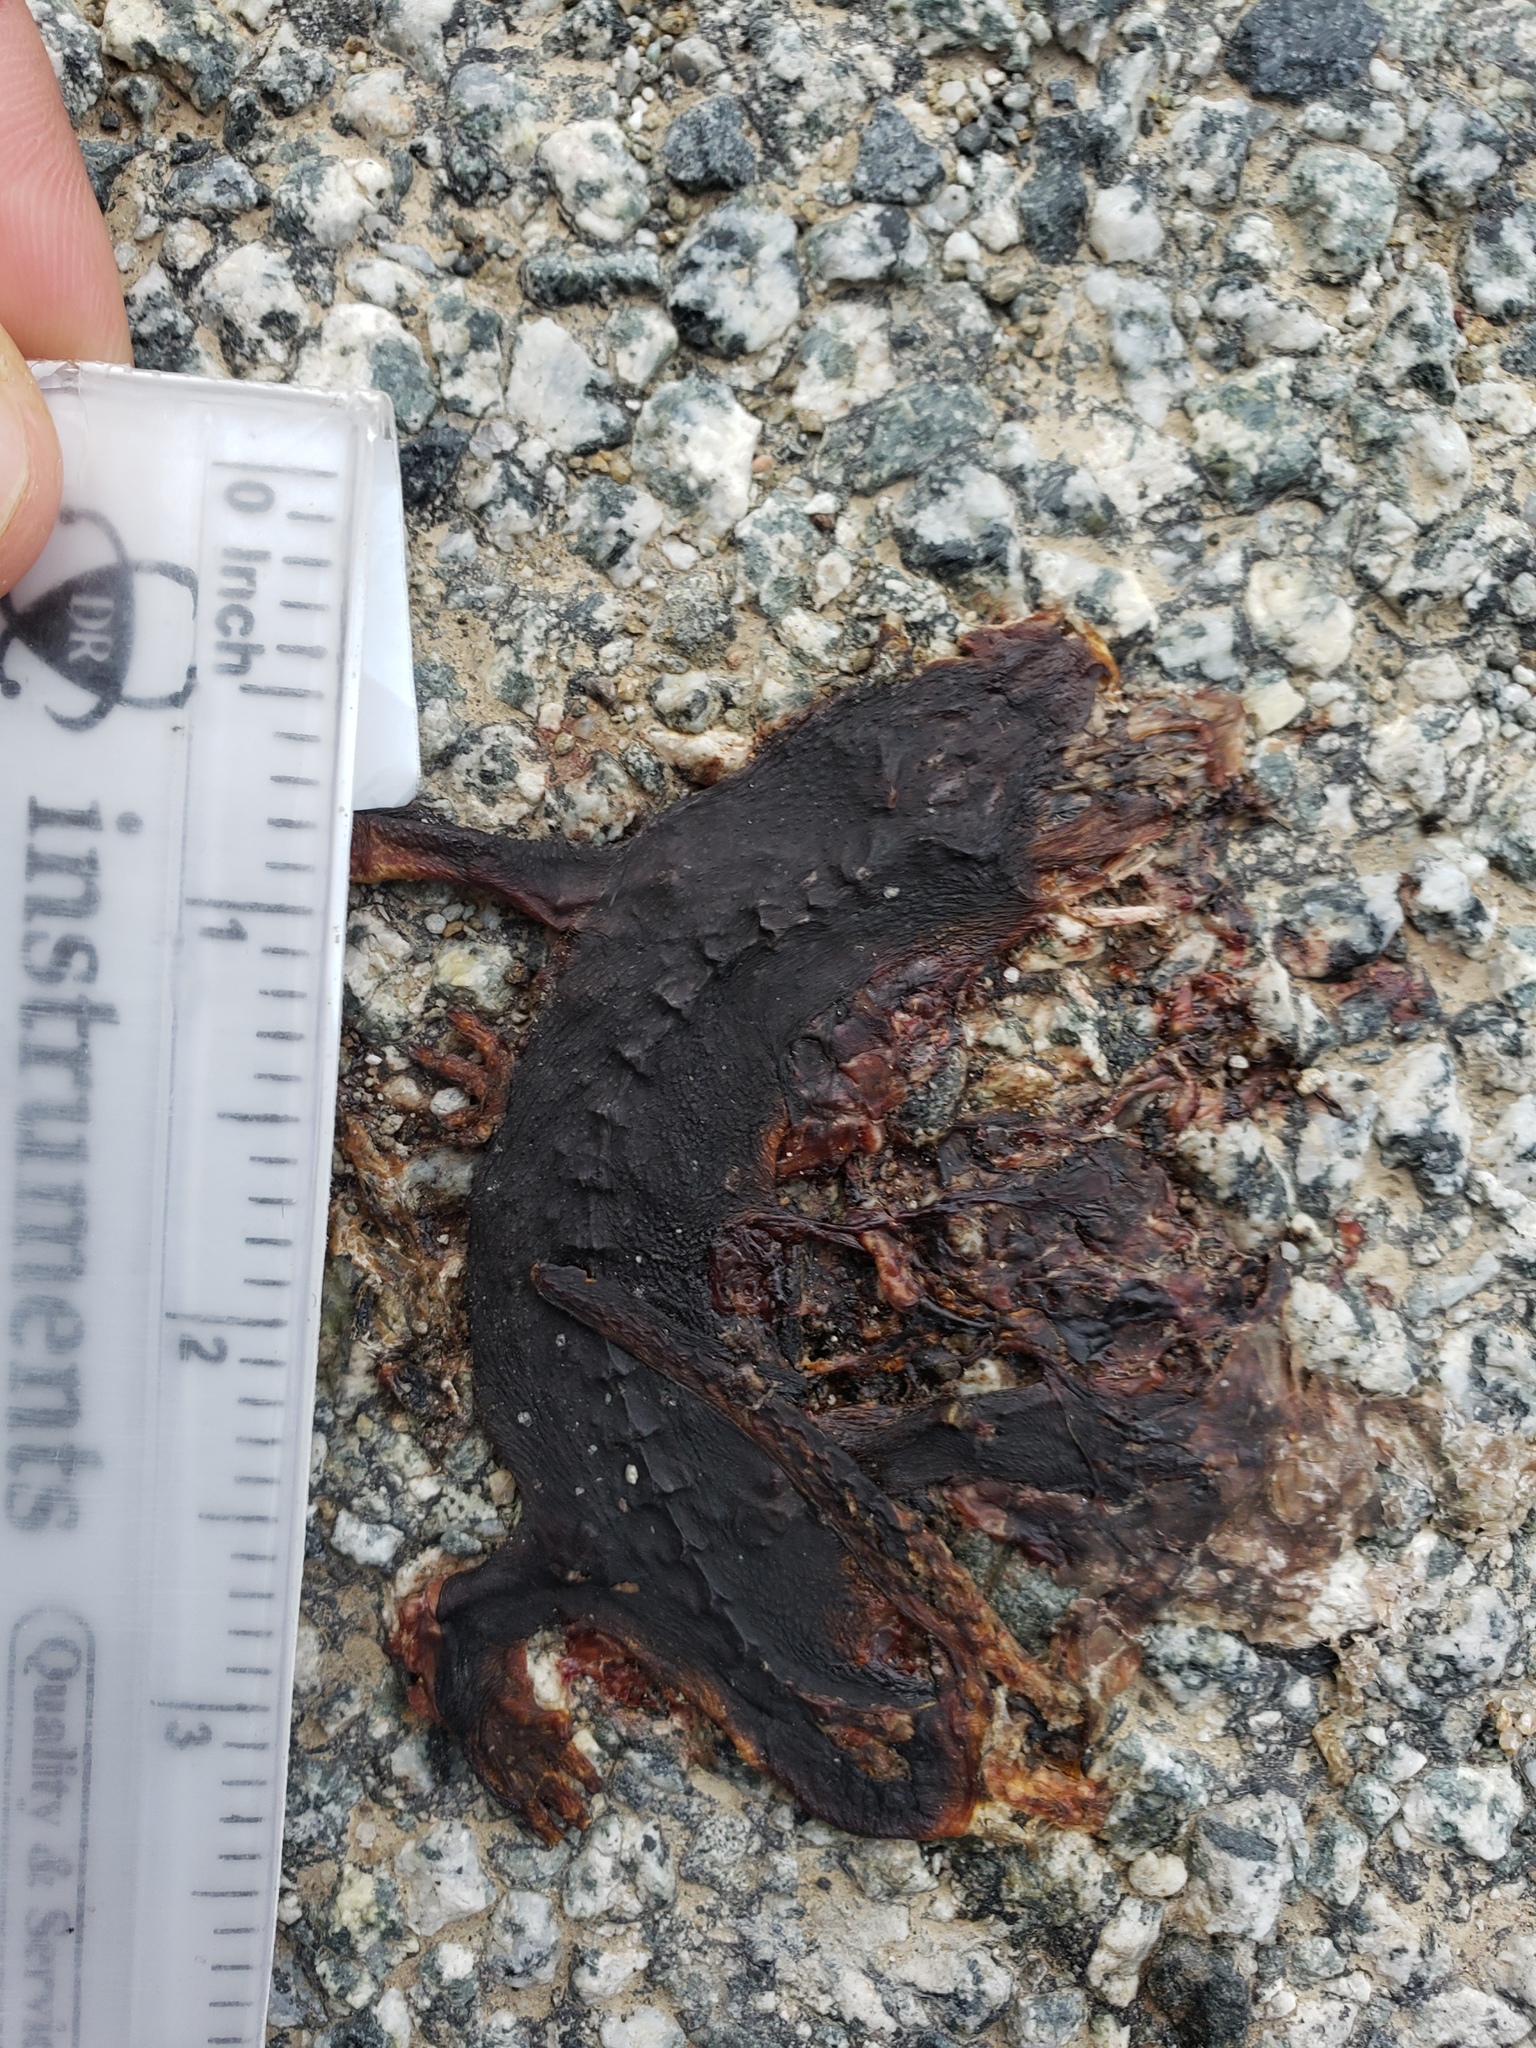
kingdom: Animalia
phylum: Chordata
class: Amphibia
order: Caudata
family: Salamandridae
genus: Taricha
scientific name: Taricha
